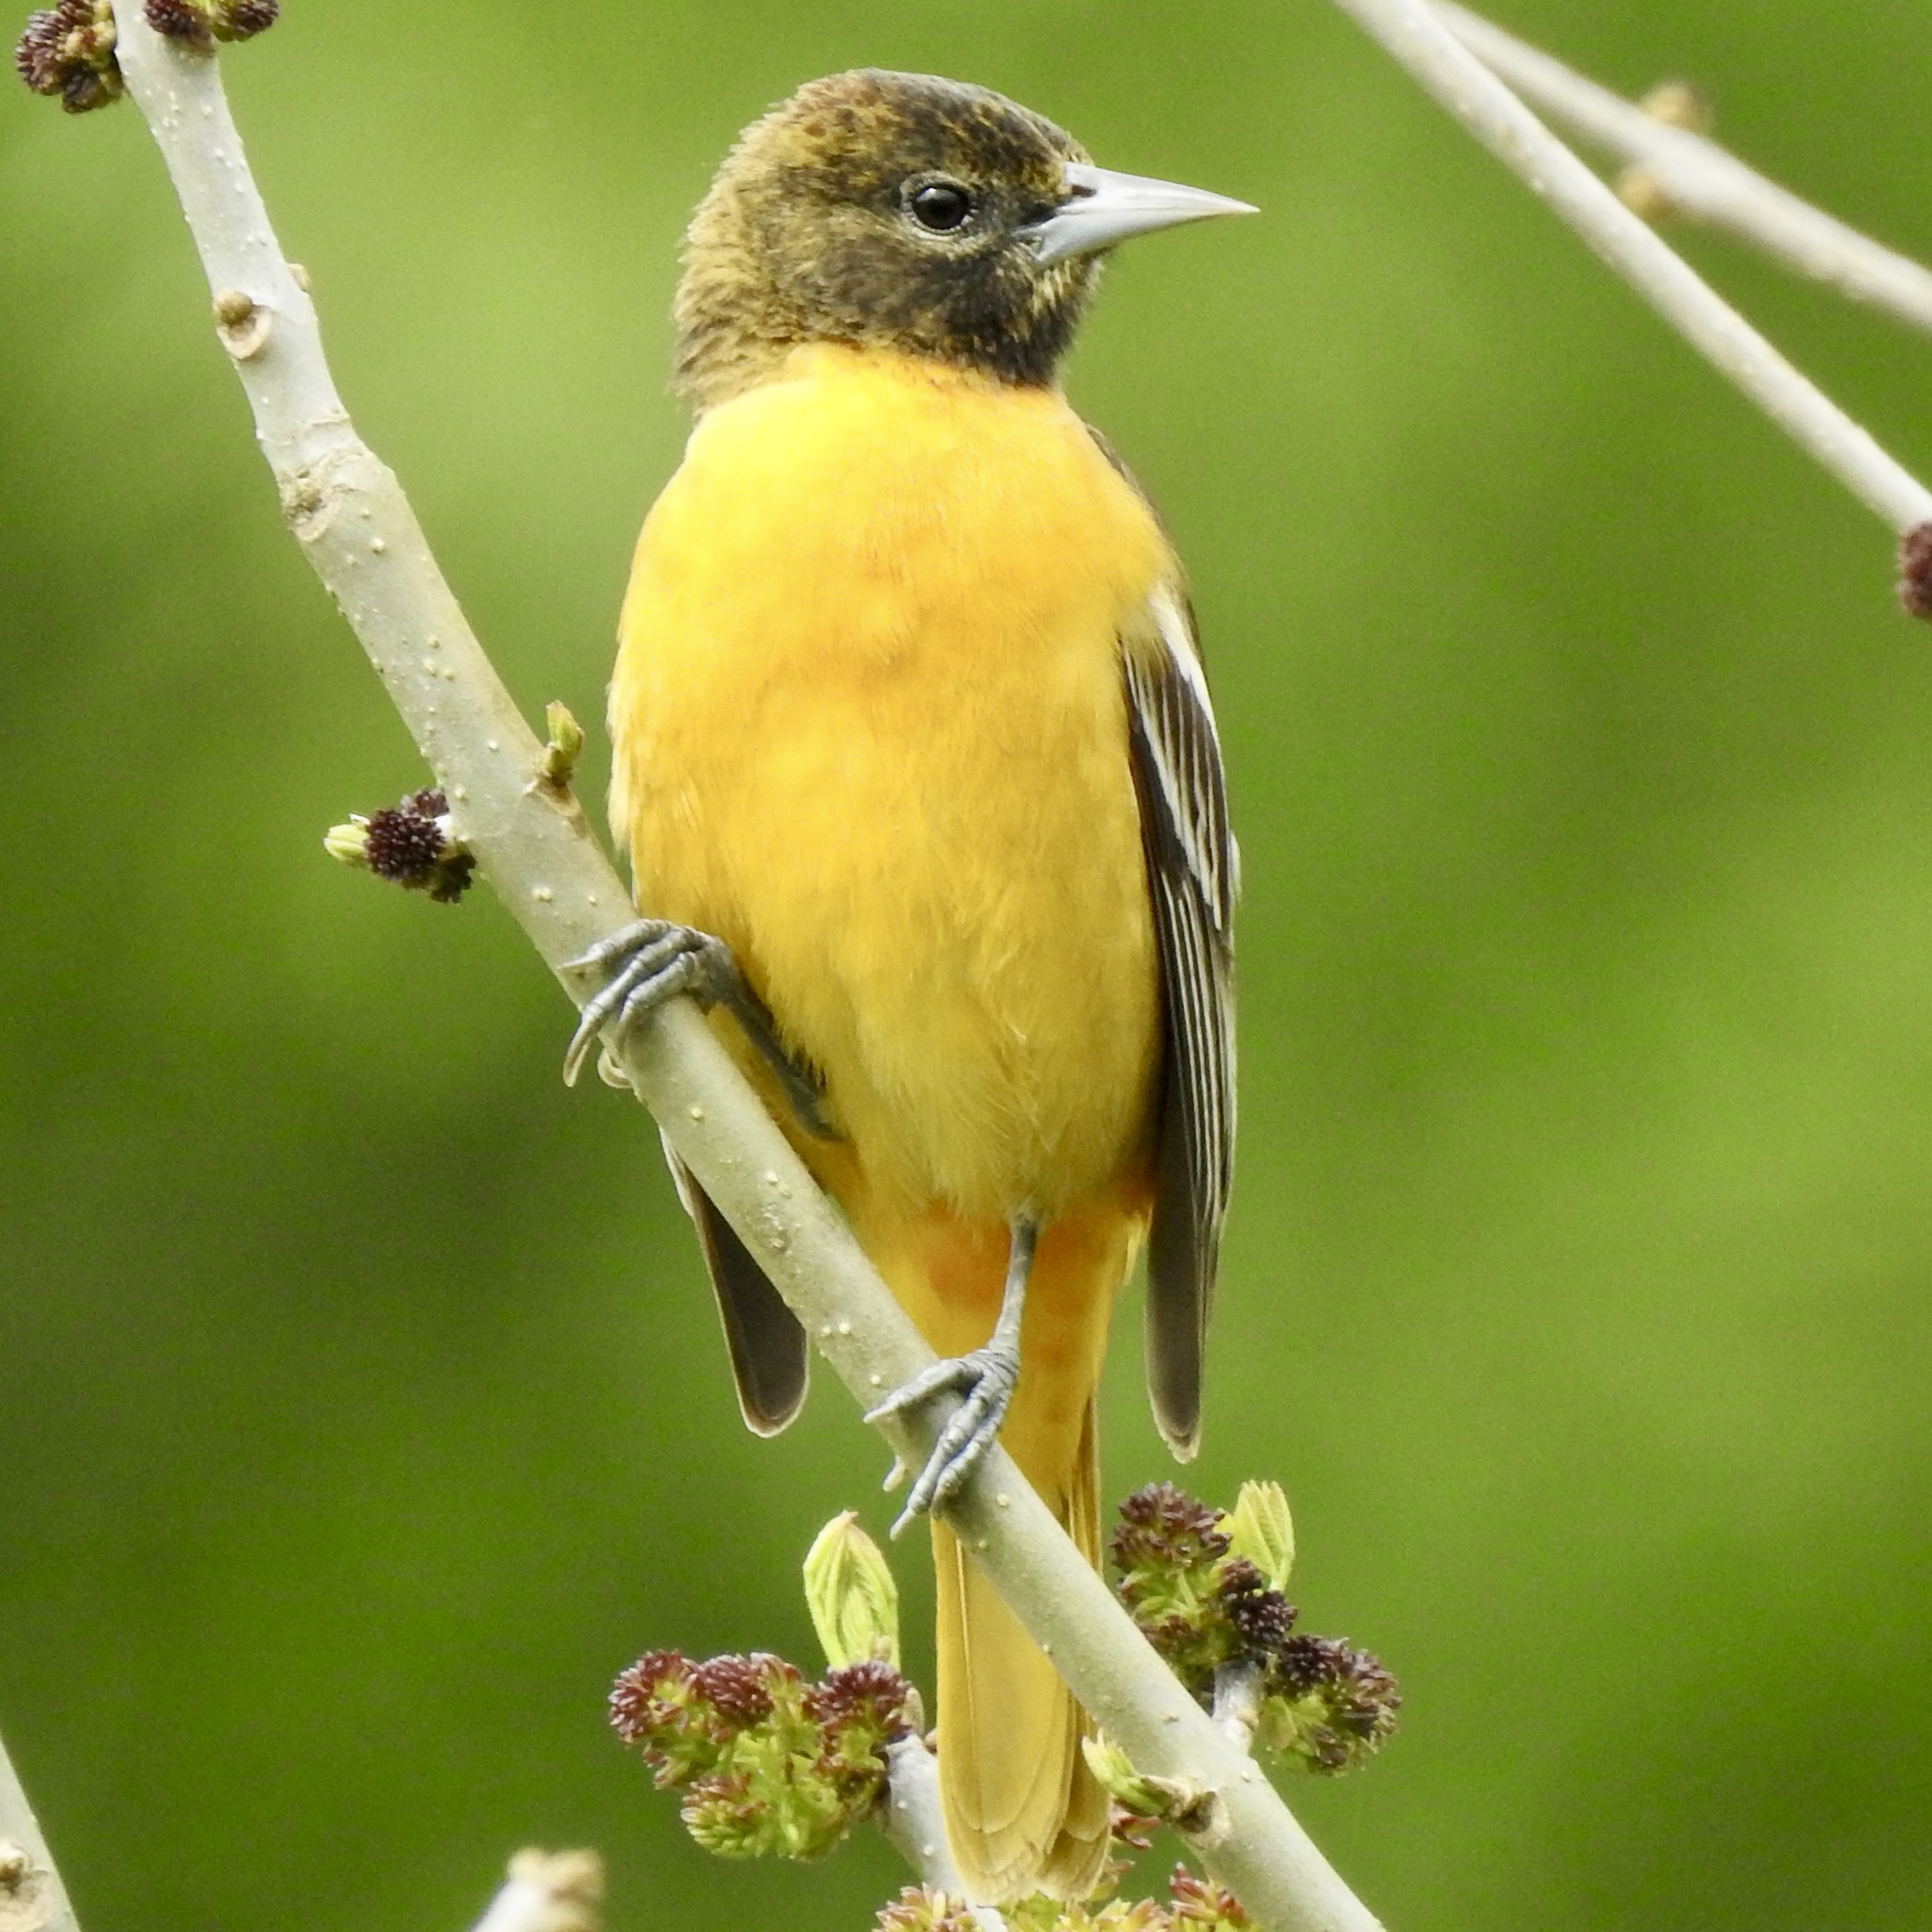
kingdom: Animalia
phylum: Chordata
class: Aves
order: Passeriformes
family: Icteridae
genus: Icterus
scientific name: Icterus galbula
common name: Baltimore oriole
